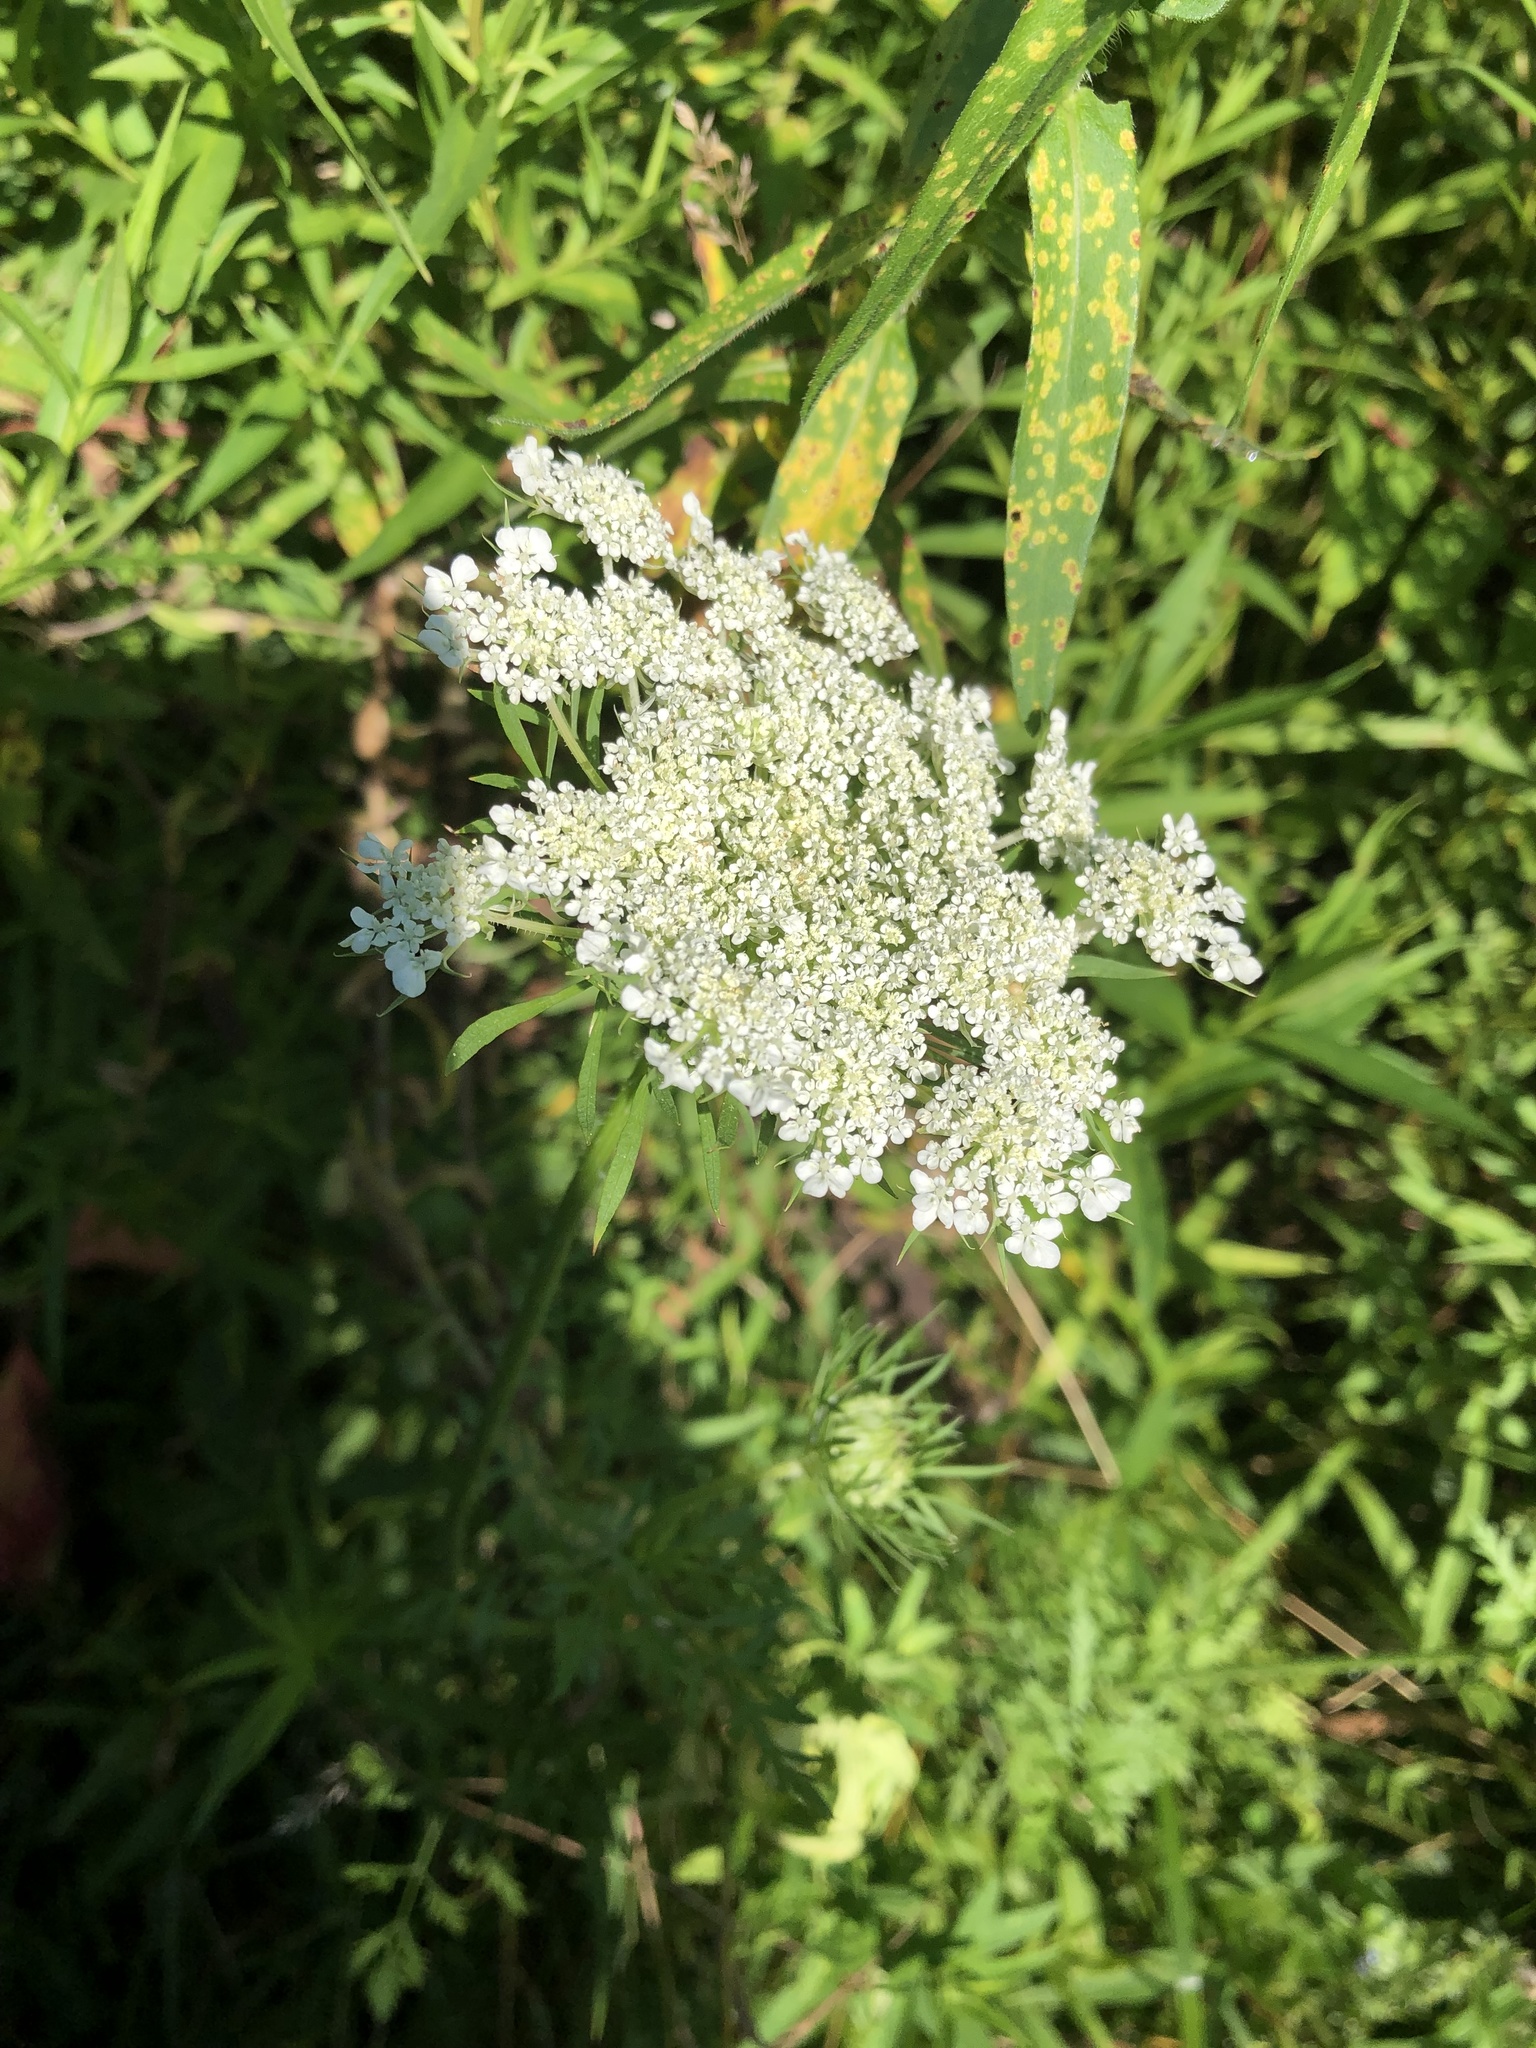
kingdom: Plantae
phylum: Tracheophyta
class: Magnoliopsida
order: Apiales
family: Apiaceae
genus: Daucus
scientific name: Daucus carota
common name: Wild carrot
